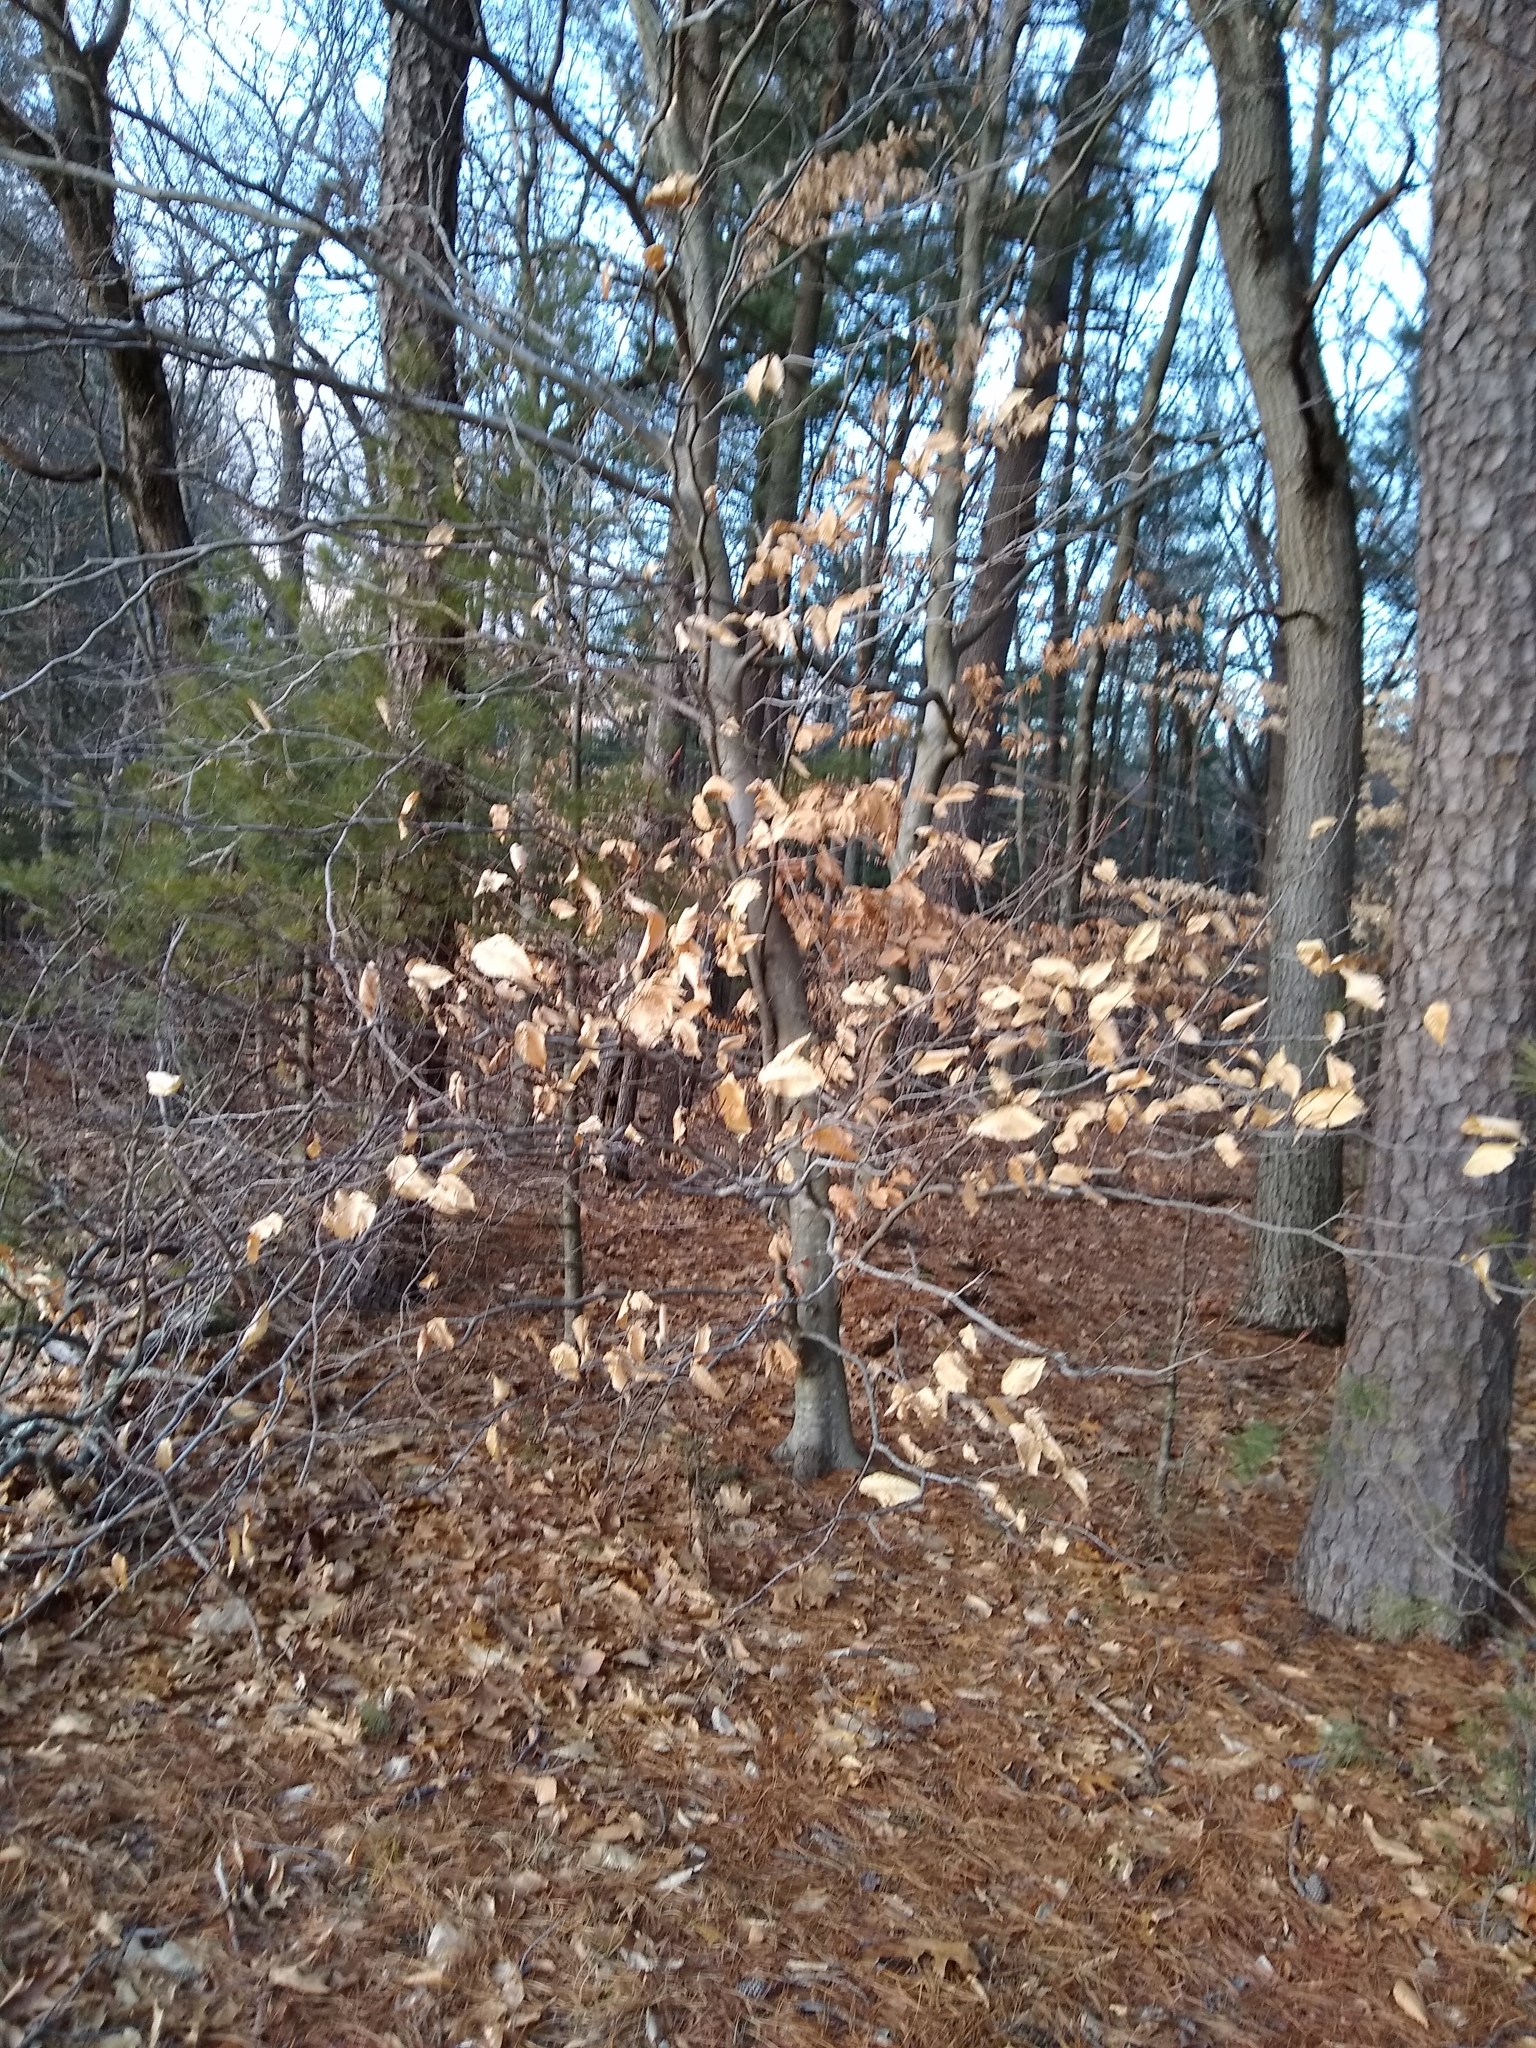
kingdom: Plantae
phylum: Tracheophyta
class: Magnoliopsida
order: Fagales
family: Fagaceae
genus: Fagus
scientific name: Fagus grandifolia
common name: American beech
